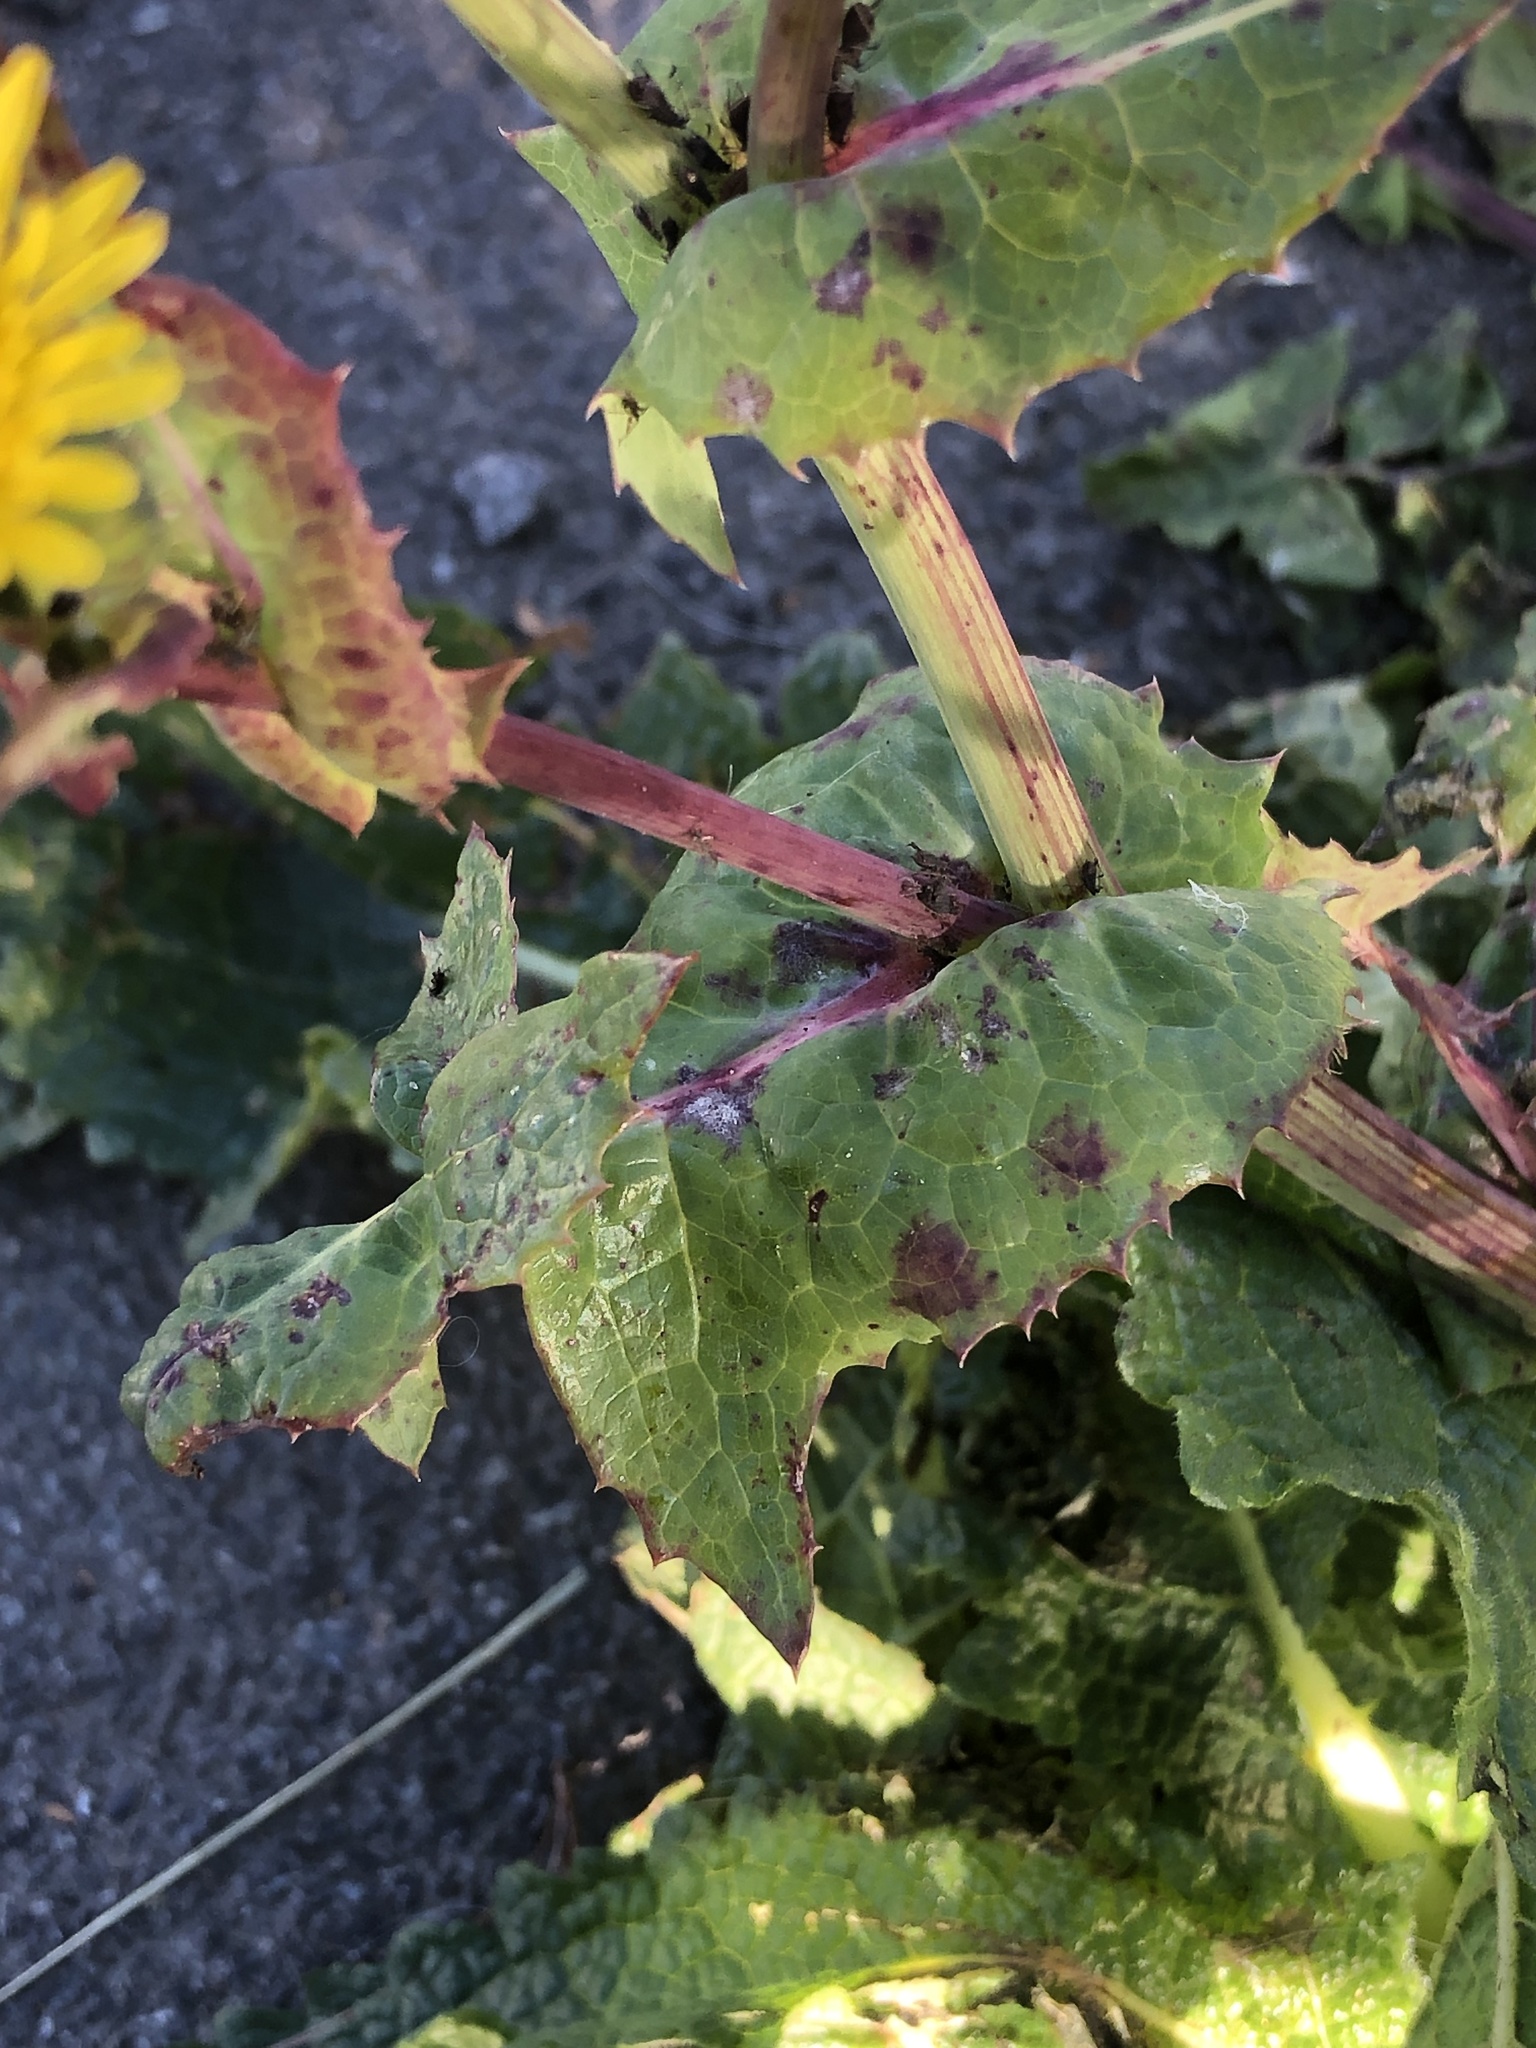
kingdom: Plantae
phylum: Tracheophyta
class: Magnoliopsida
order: Asterales
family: Asteraceae
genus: Sonchus
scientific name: Sonchus oleraceus
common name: Common sowthistle
